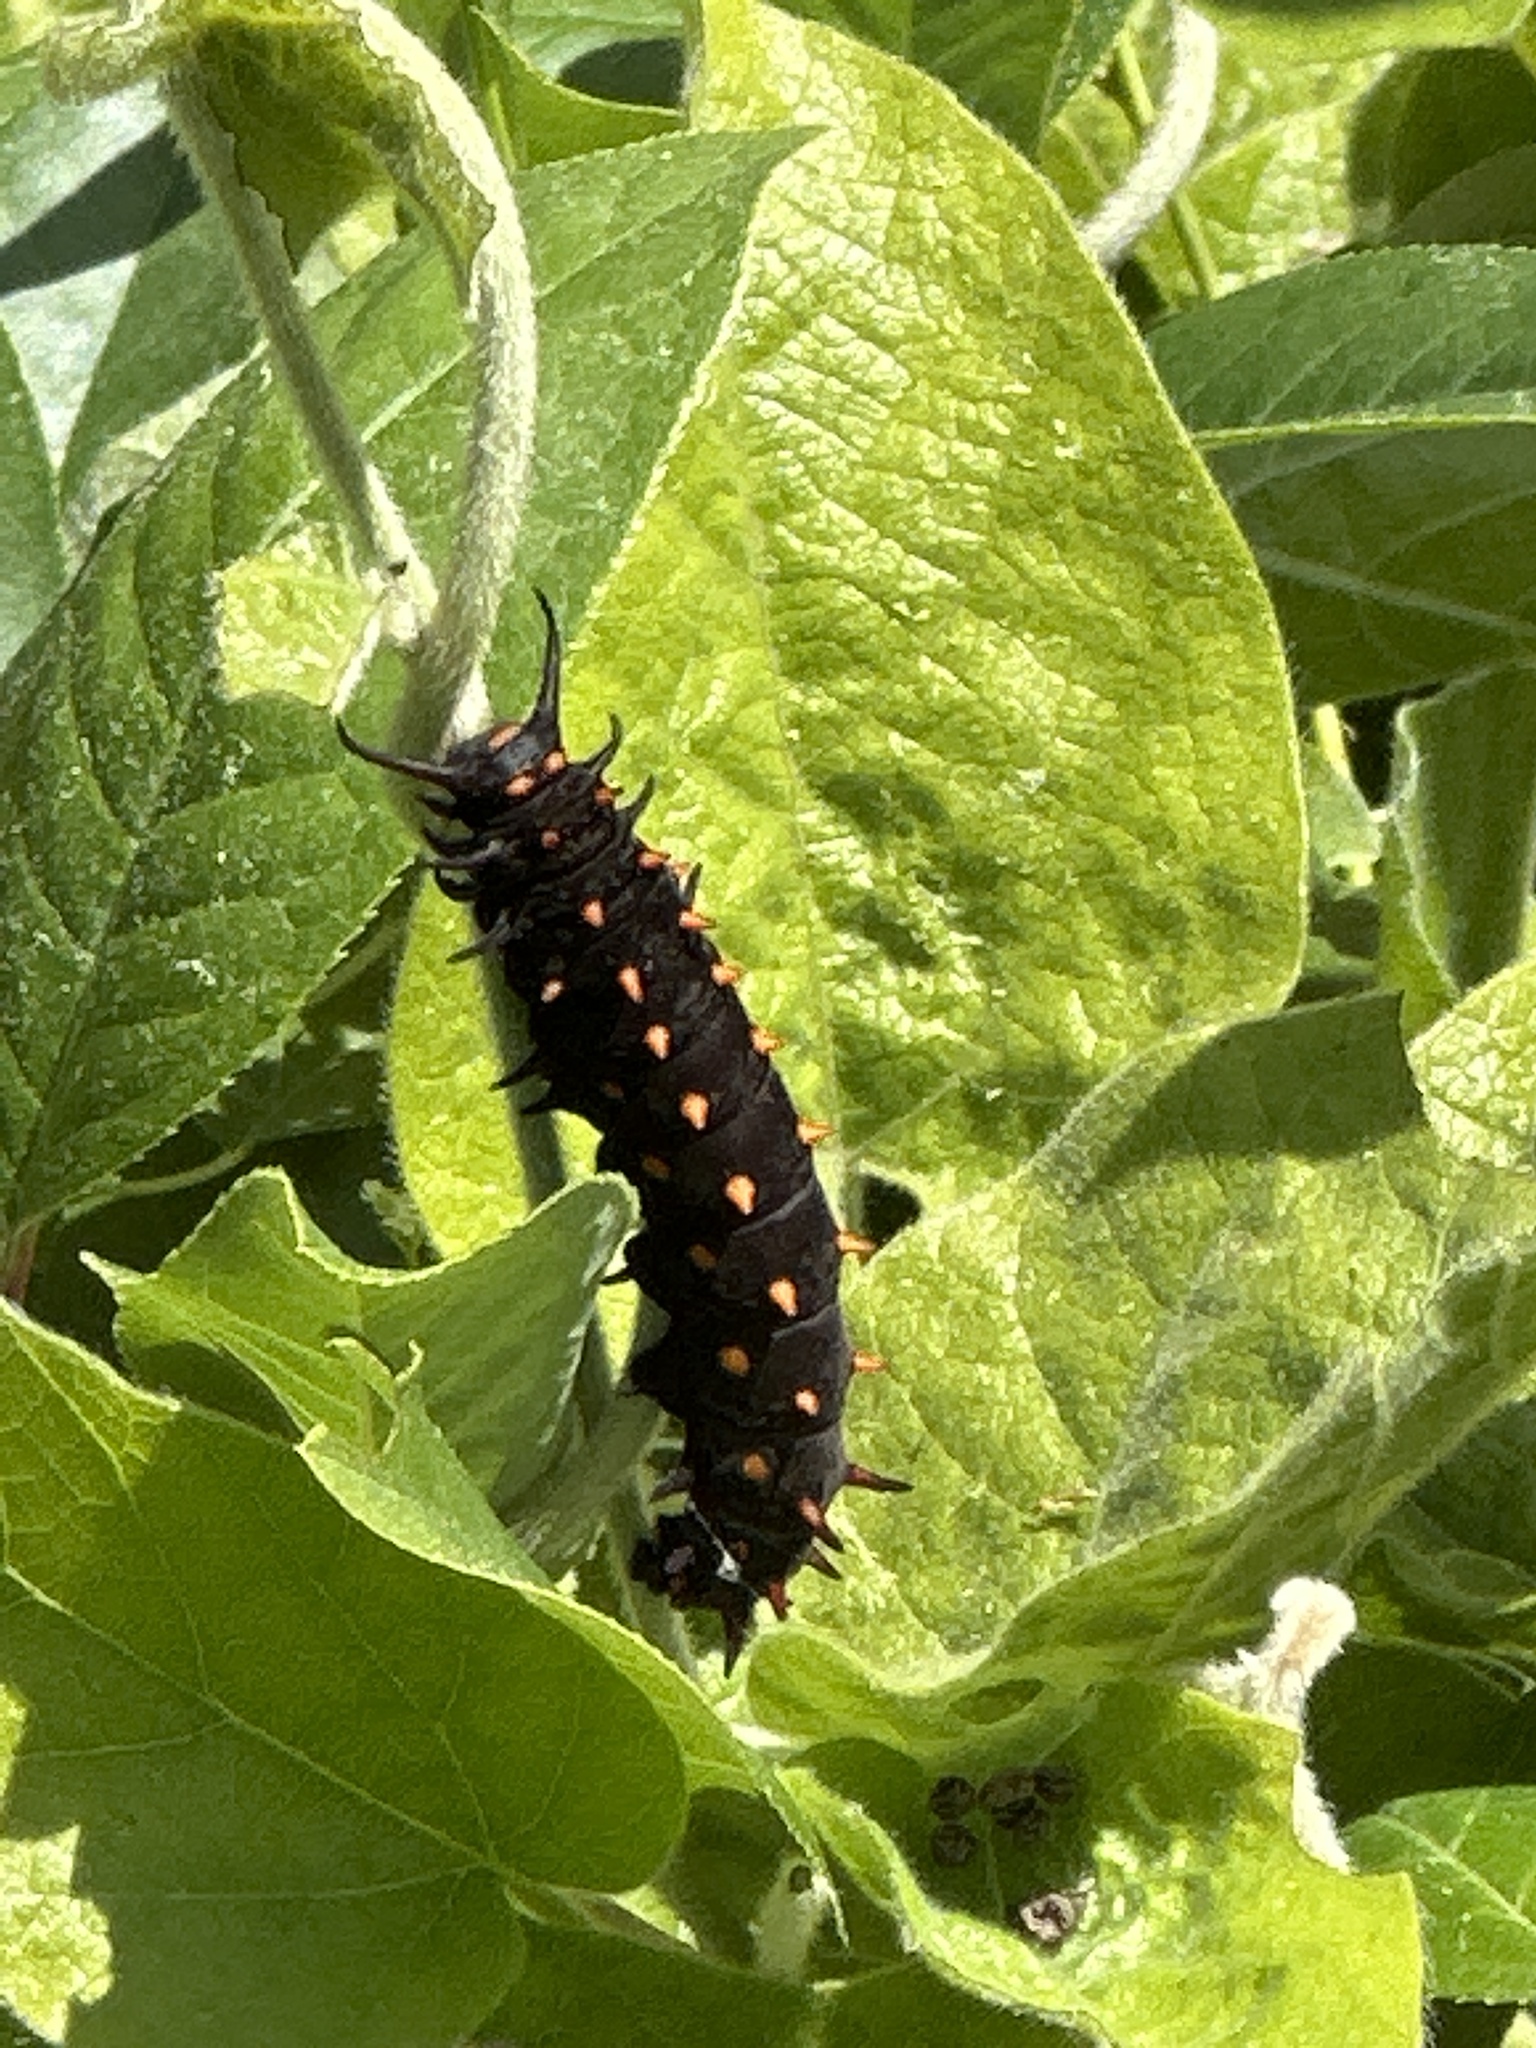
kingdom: Animalia
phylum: Arthropoda
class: Insecta
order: Lepidoptera
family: Papilionidae
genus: Battus
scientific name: Battus philenor
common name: Pipevine swallowtail
